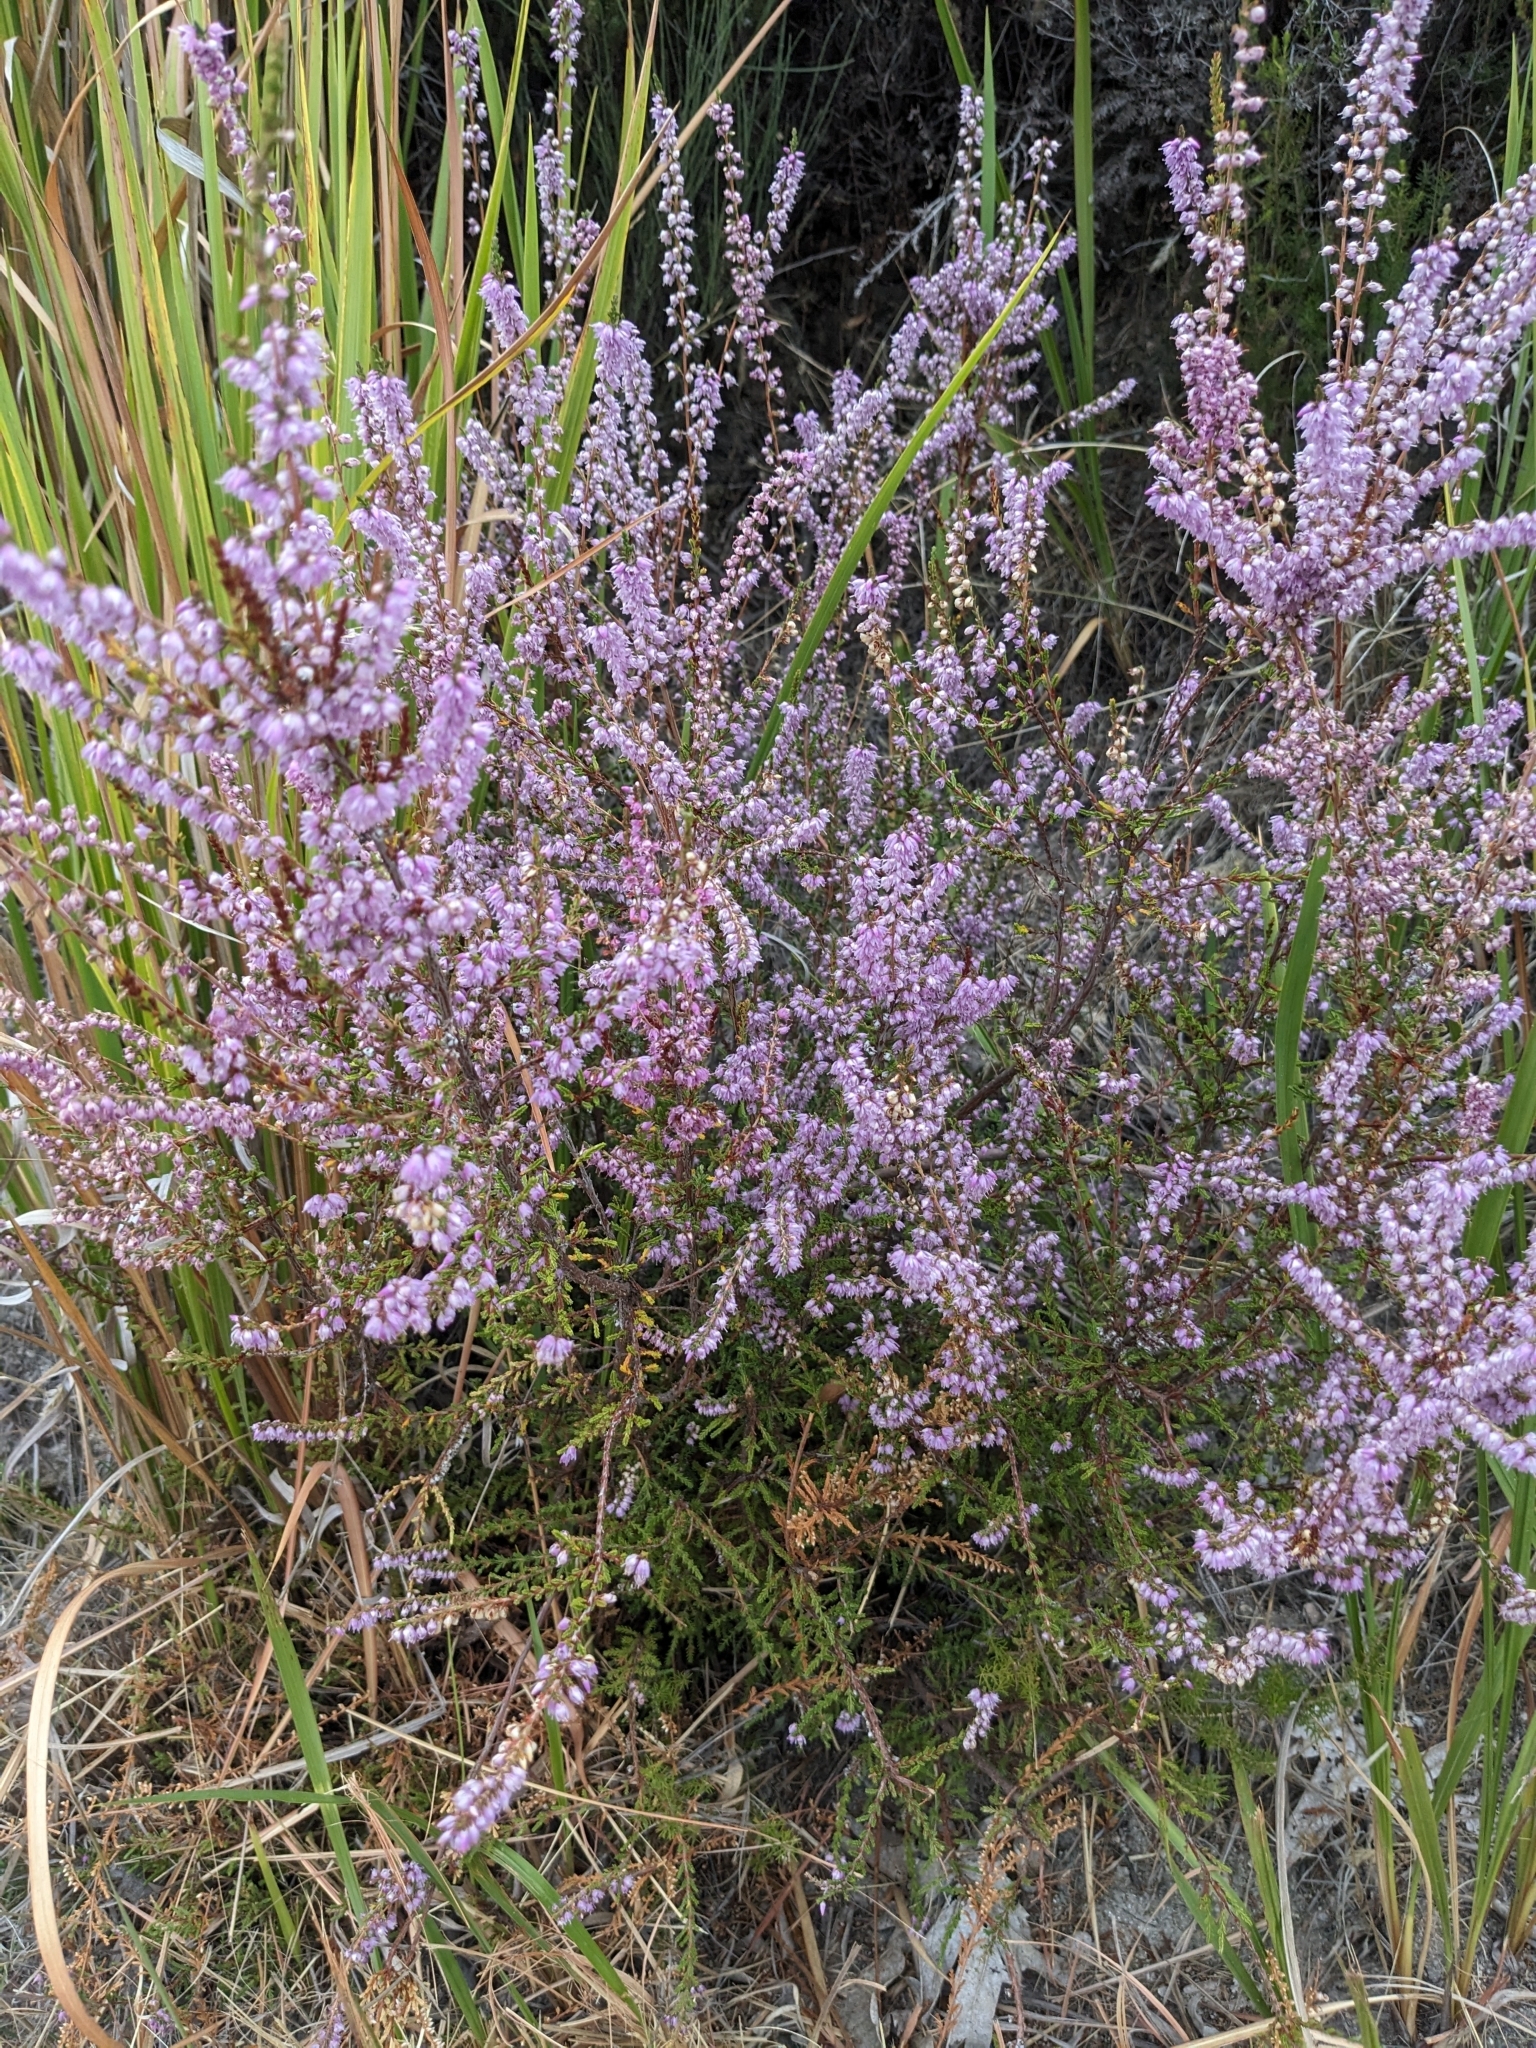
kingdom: Plantae
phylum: Tracheophyta
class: Magnoliopsida
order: Ericales
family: Ericaceae
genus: Calluna
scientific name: Calluna vulgaris
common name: Heather
